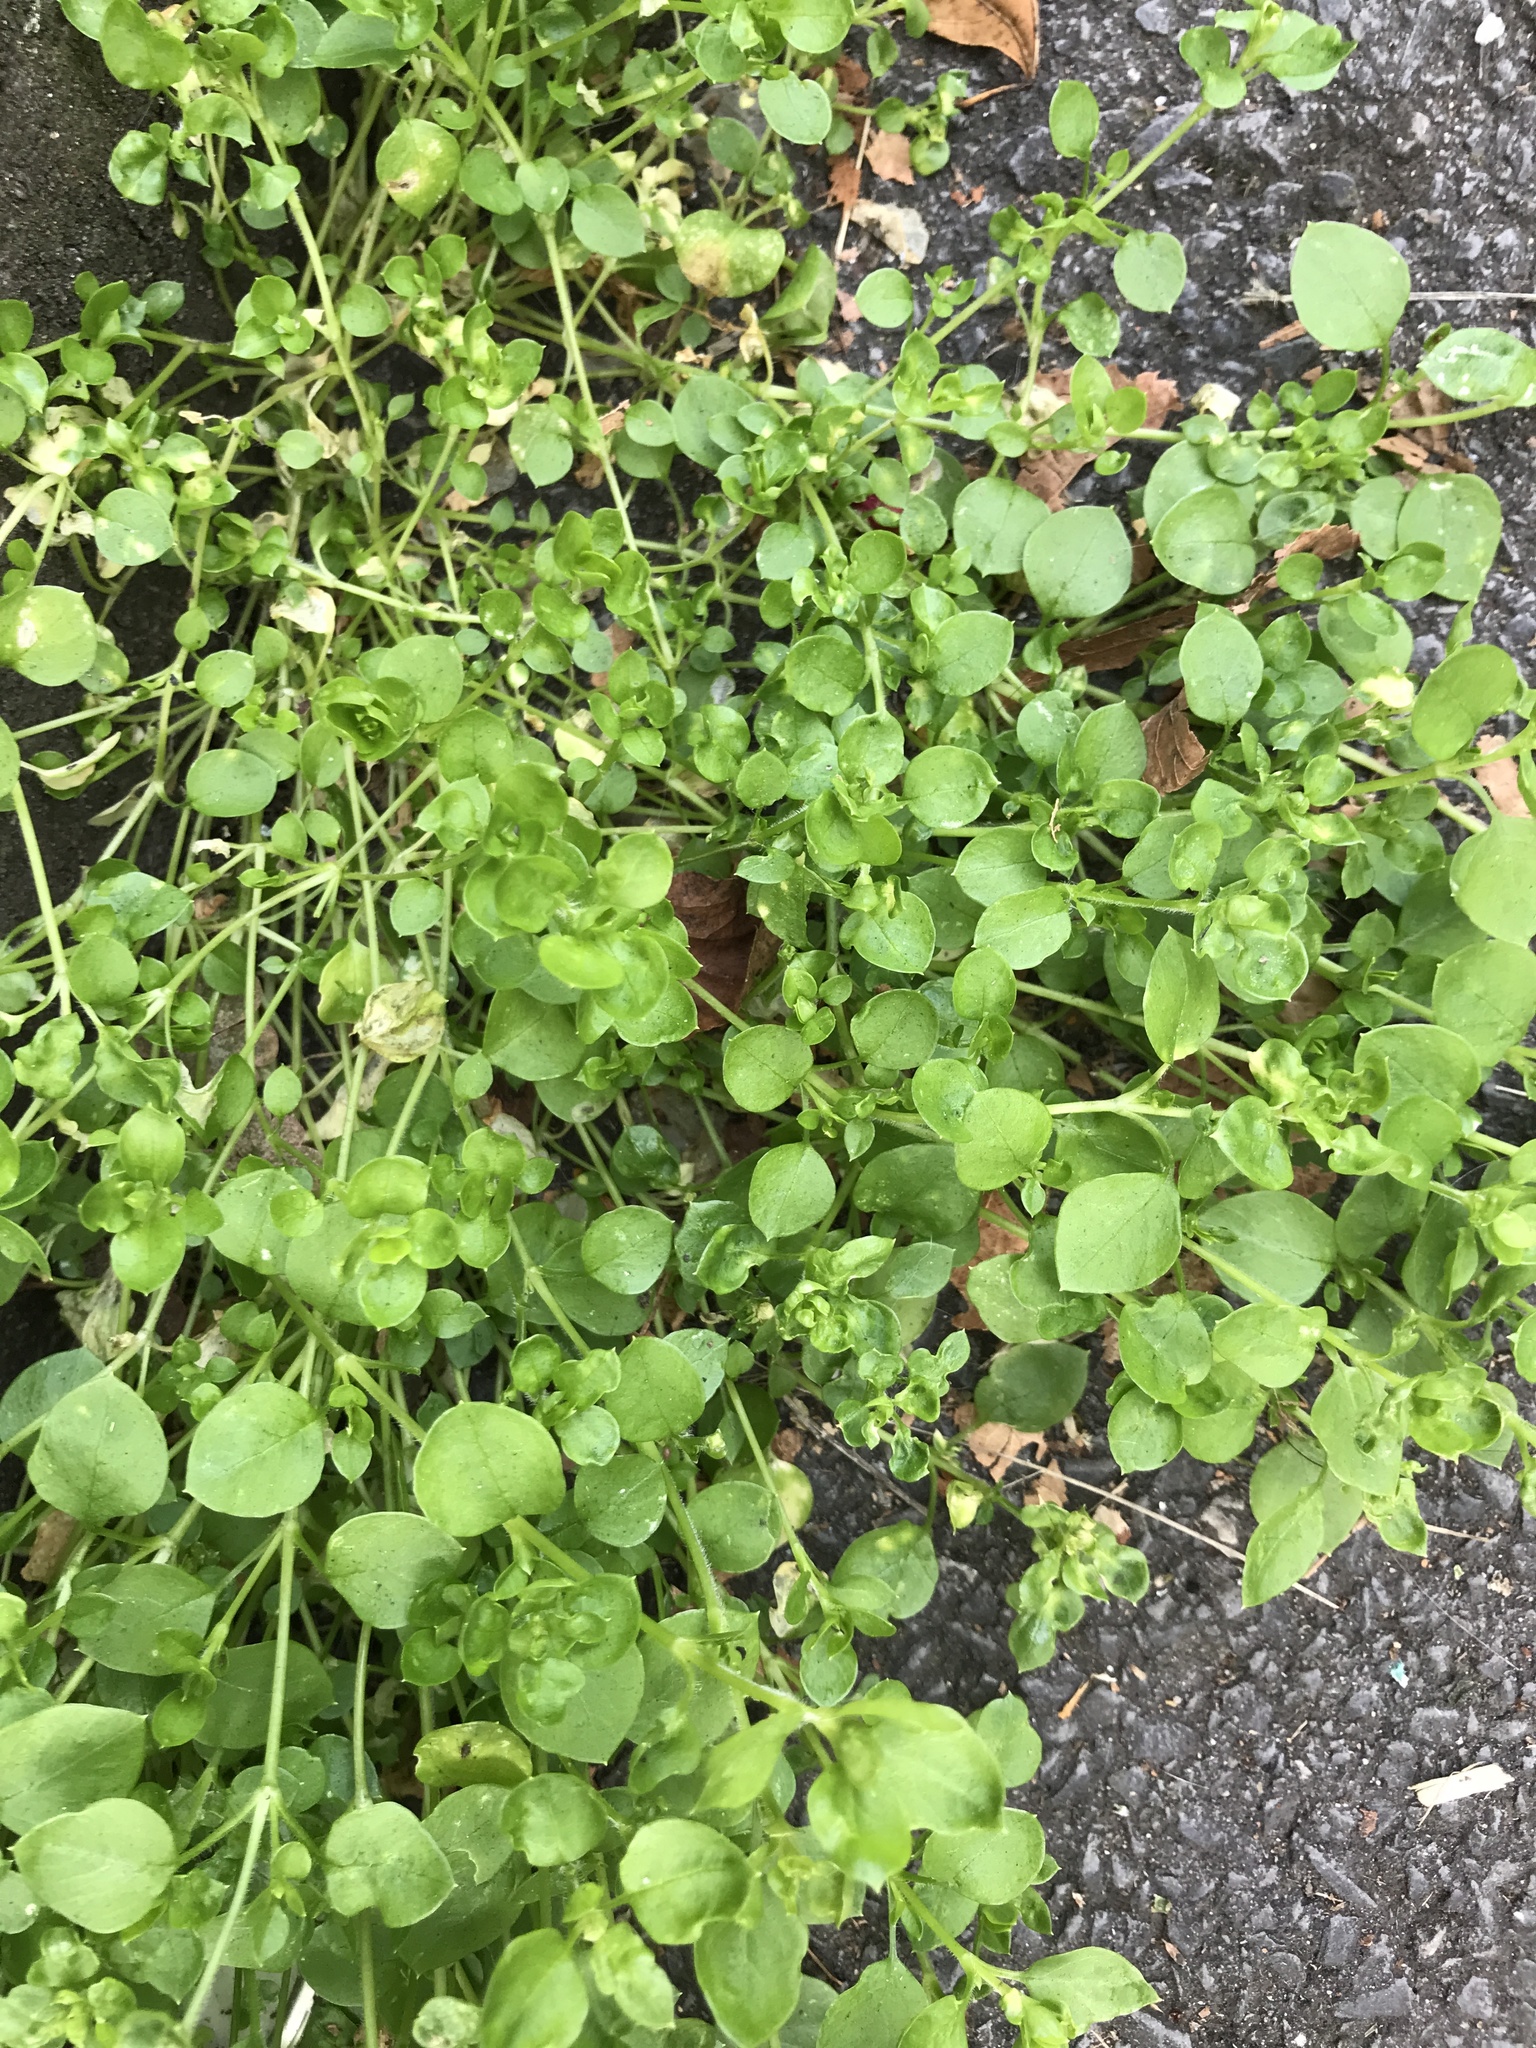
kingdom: Plantae
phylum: Tracheophyta
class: Magnoliopsida
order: Caryophyllales
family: Caryophyllaceae
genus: Stellaria
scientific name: Stellaria media
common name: Common chickweed
